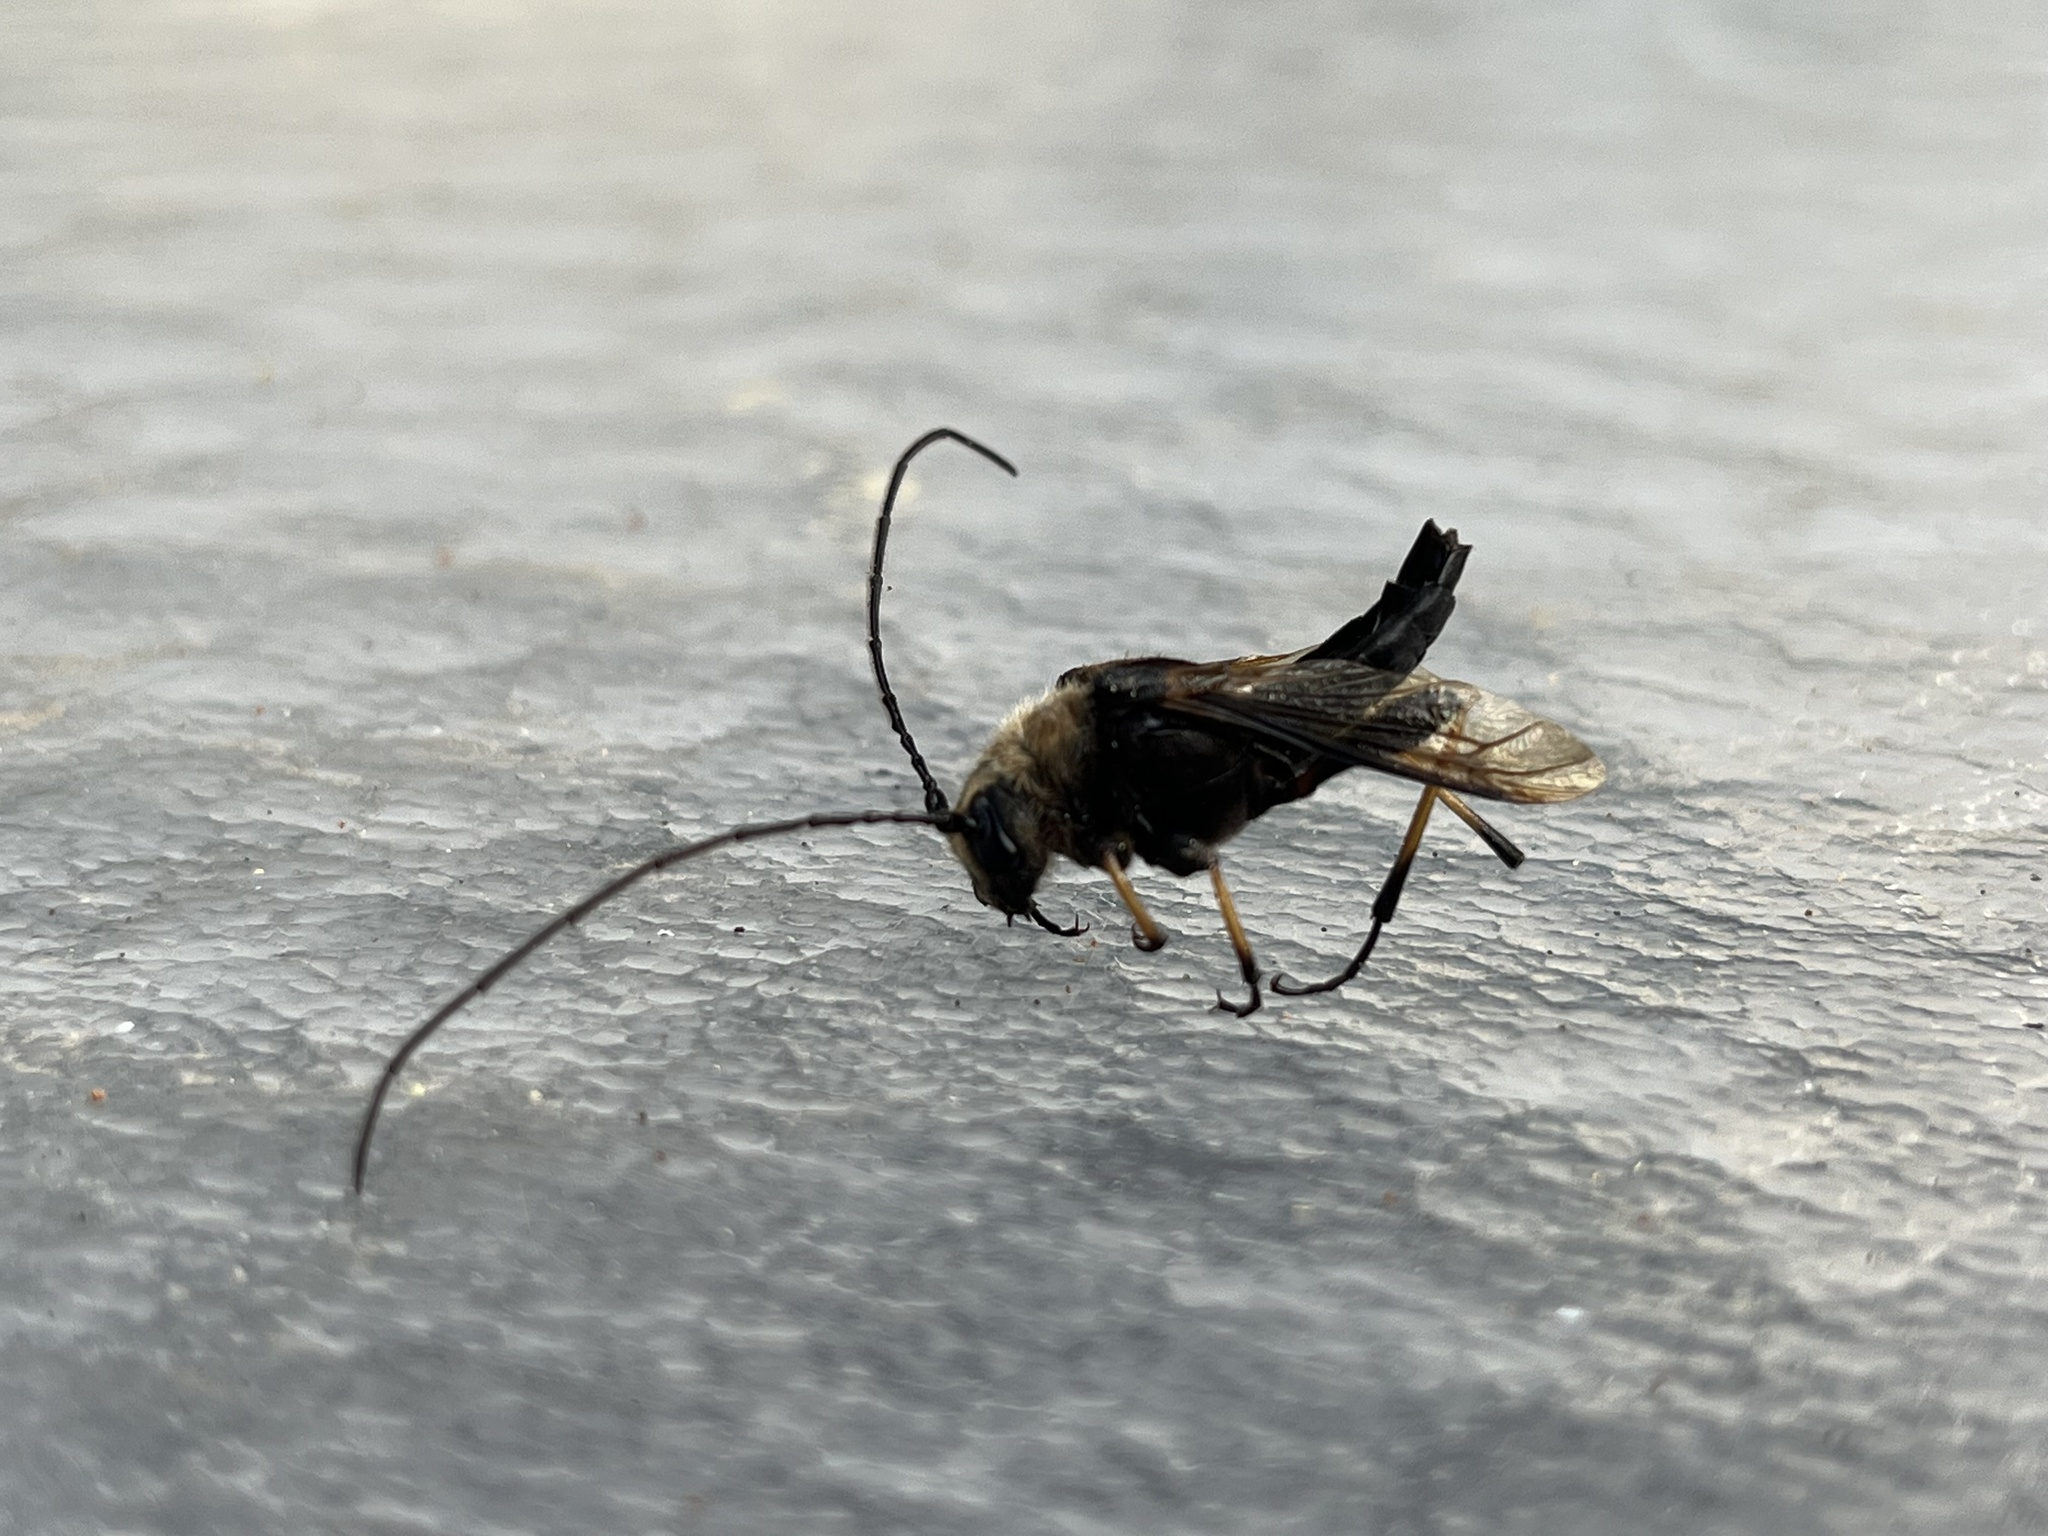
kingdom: Animalia
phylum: Arthropoda
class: Insecta
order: Coleoptera
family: Cerambycidae
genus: Ulochaetes
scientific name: Ulochaetes leoninus
